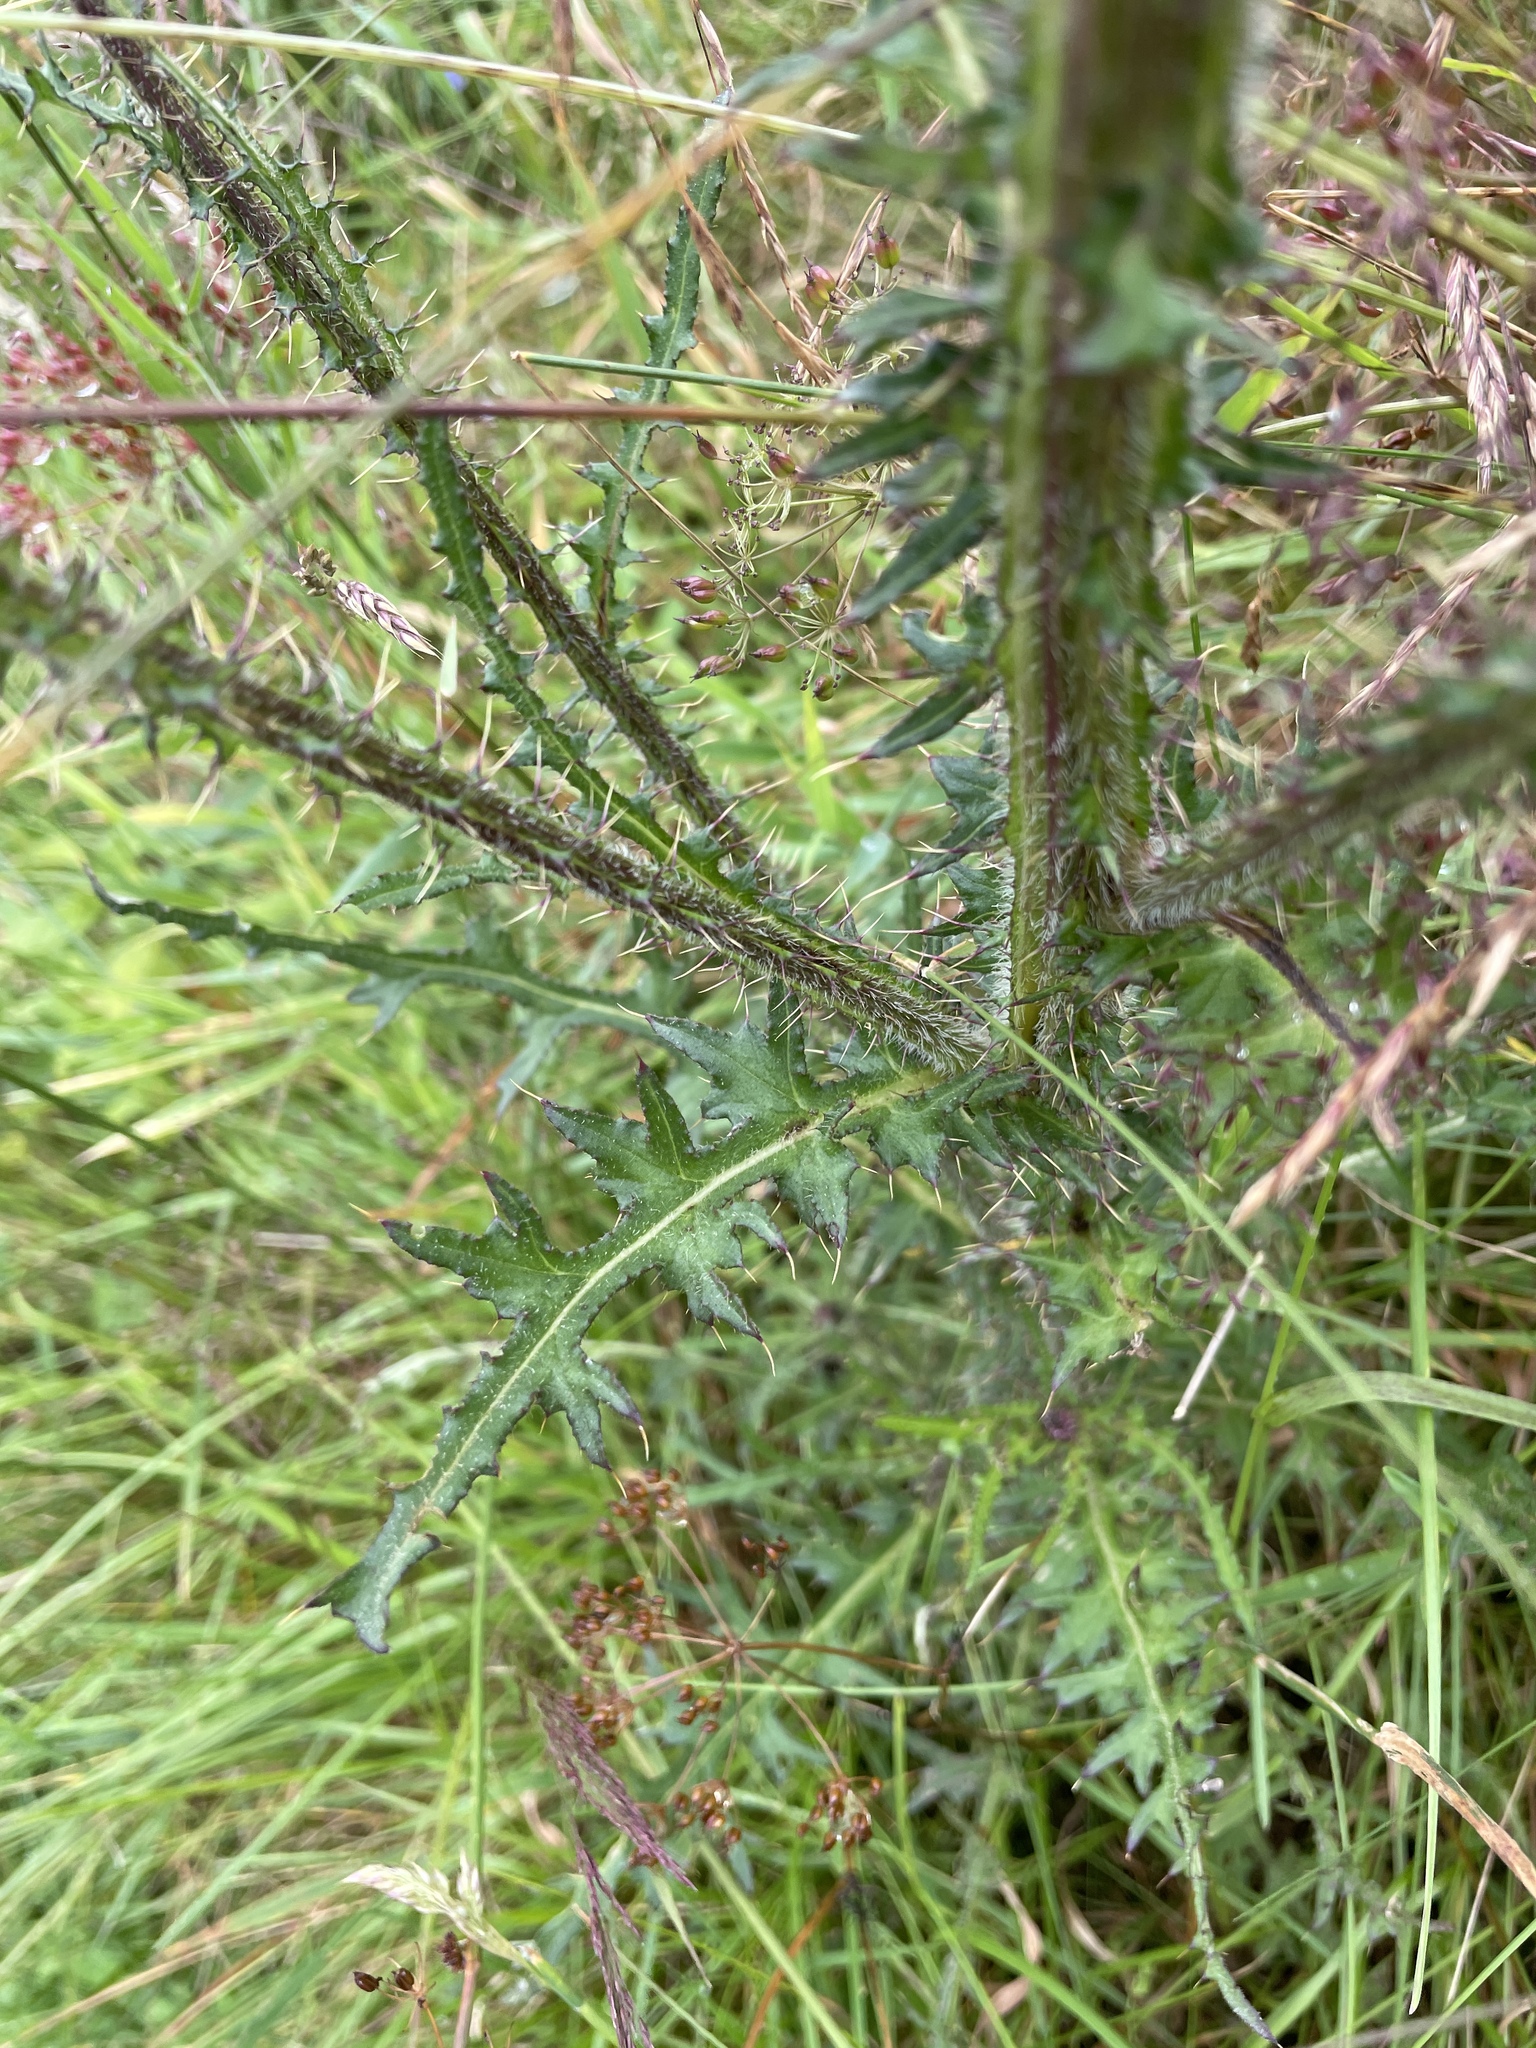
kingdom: Plantae
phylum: Tracheophyta
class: Magnoliopsida
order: Asterales
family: Asteraceae
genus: Cirsium
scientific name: Cirsium palustre
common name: Marsh thistle
